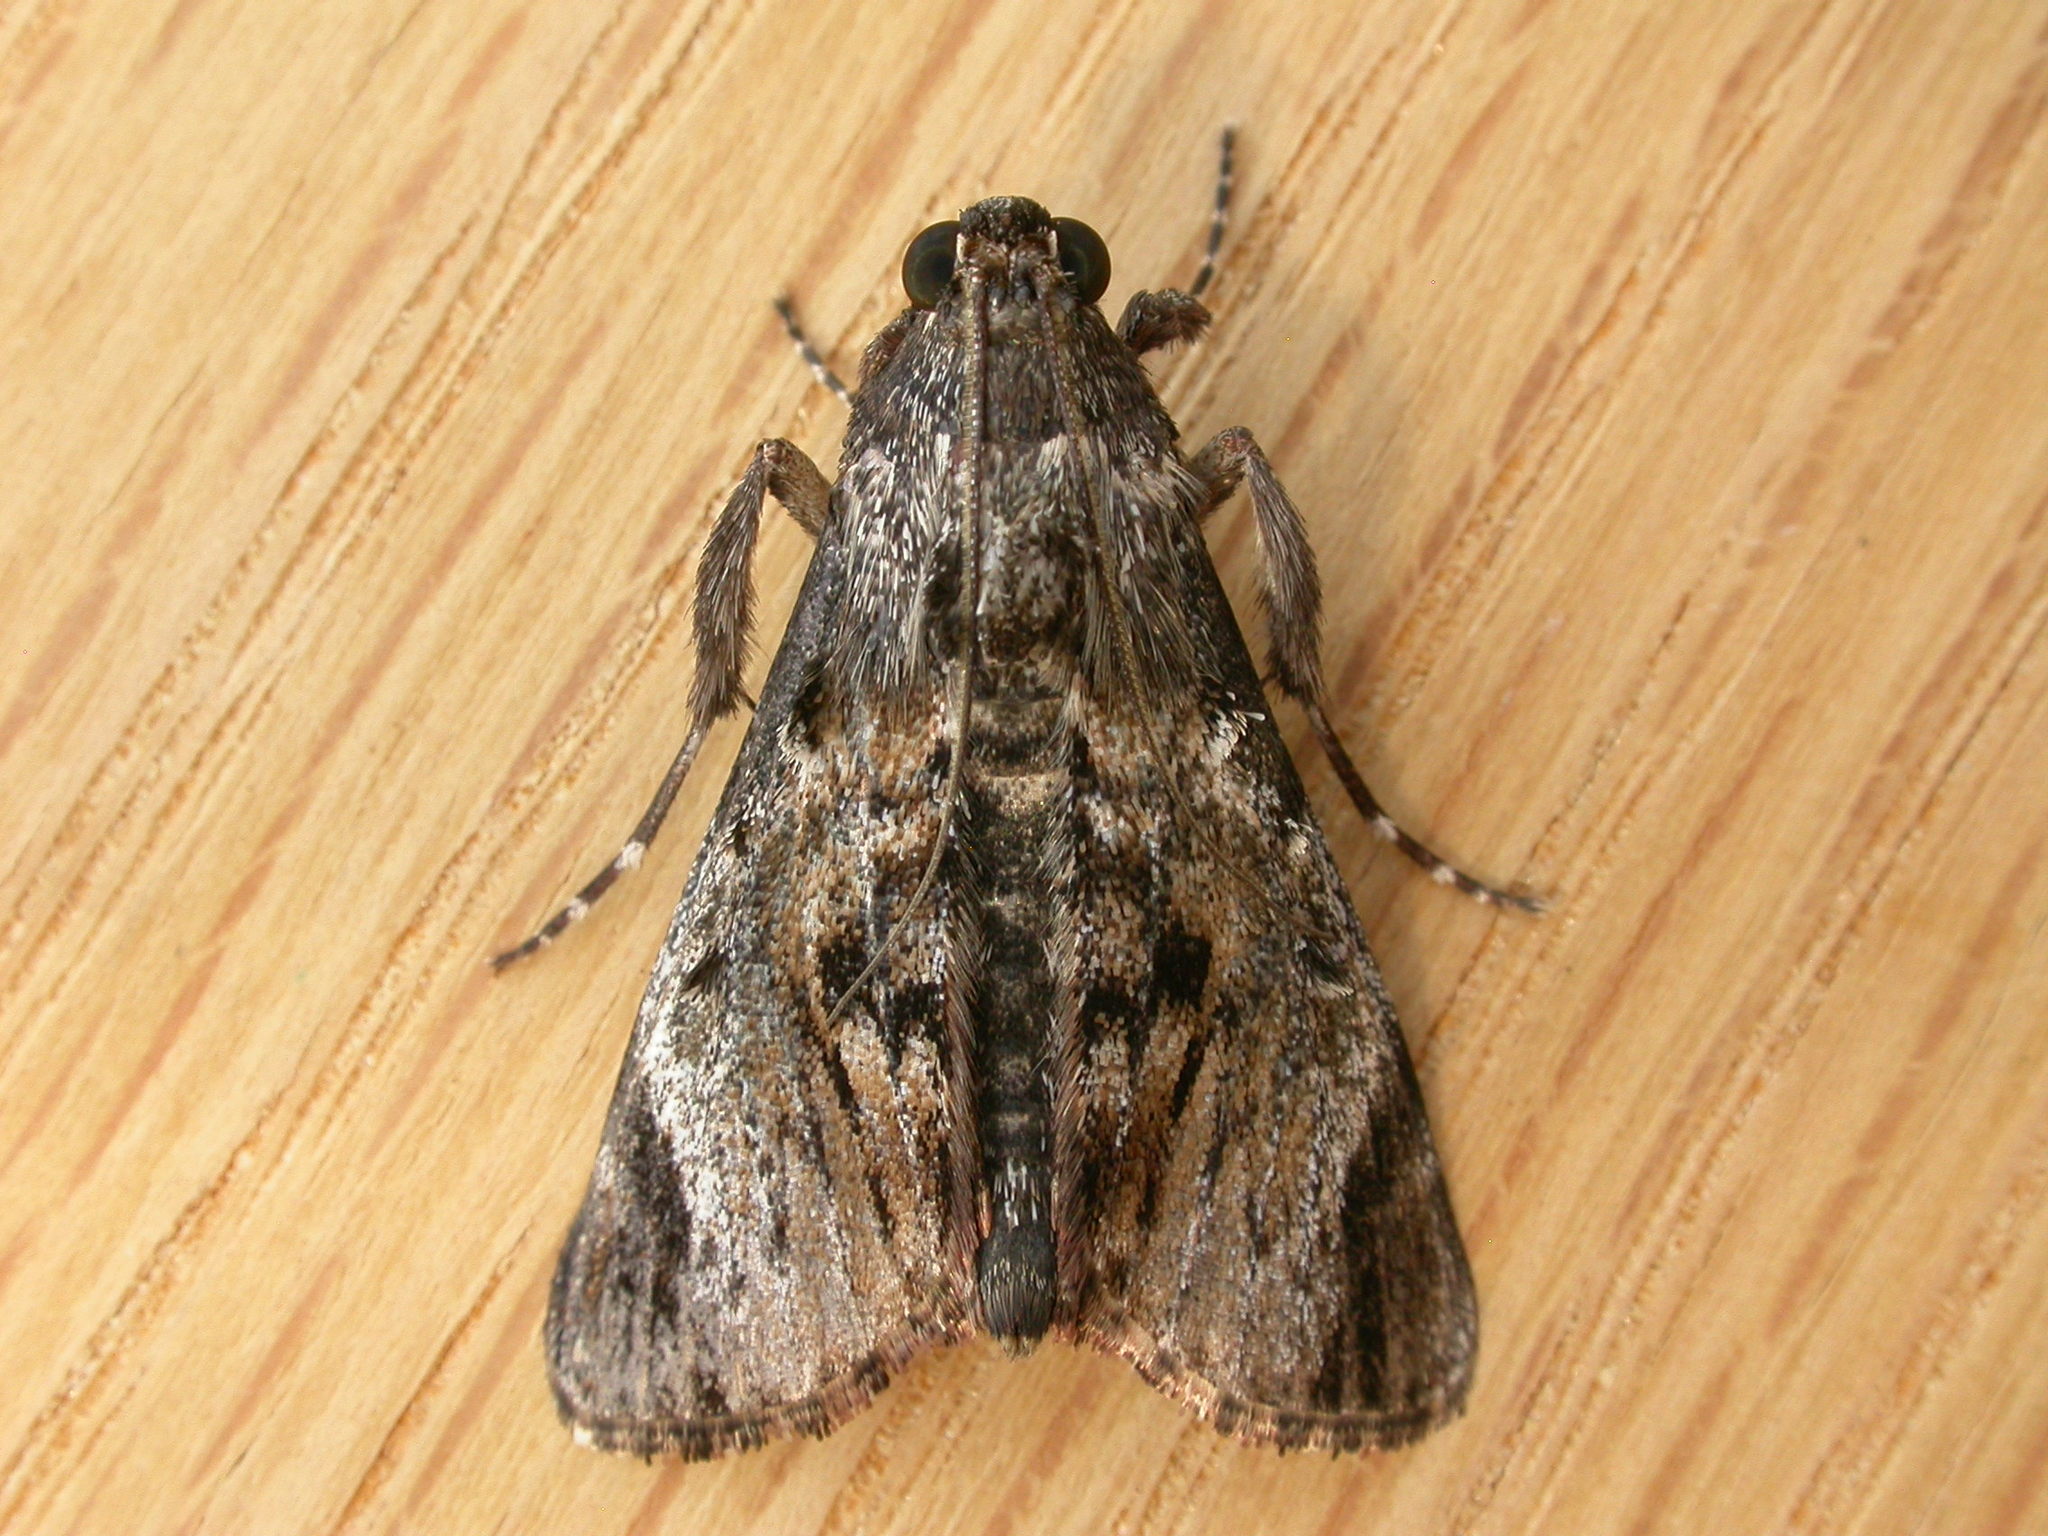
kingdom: Animalia
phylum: Arthropoda
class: Insecta
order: Lepidoptera
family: Pyralidae
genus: Salma
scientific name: Salma pyrastis
